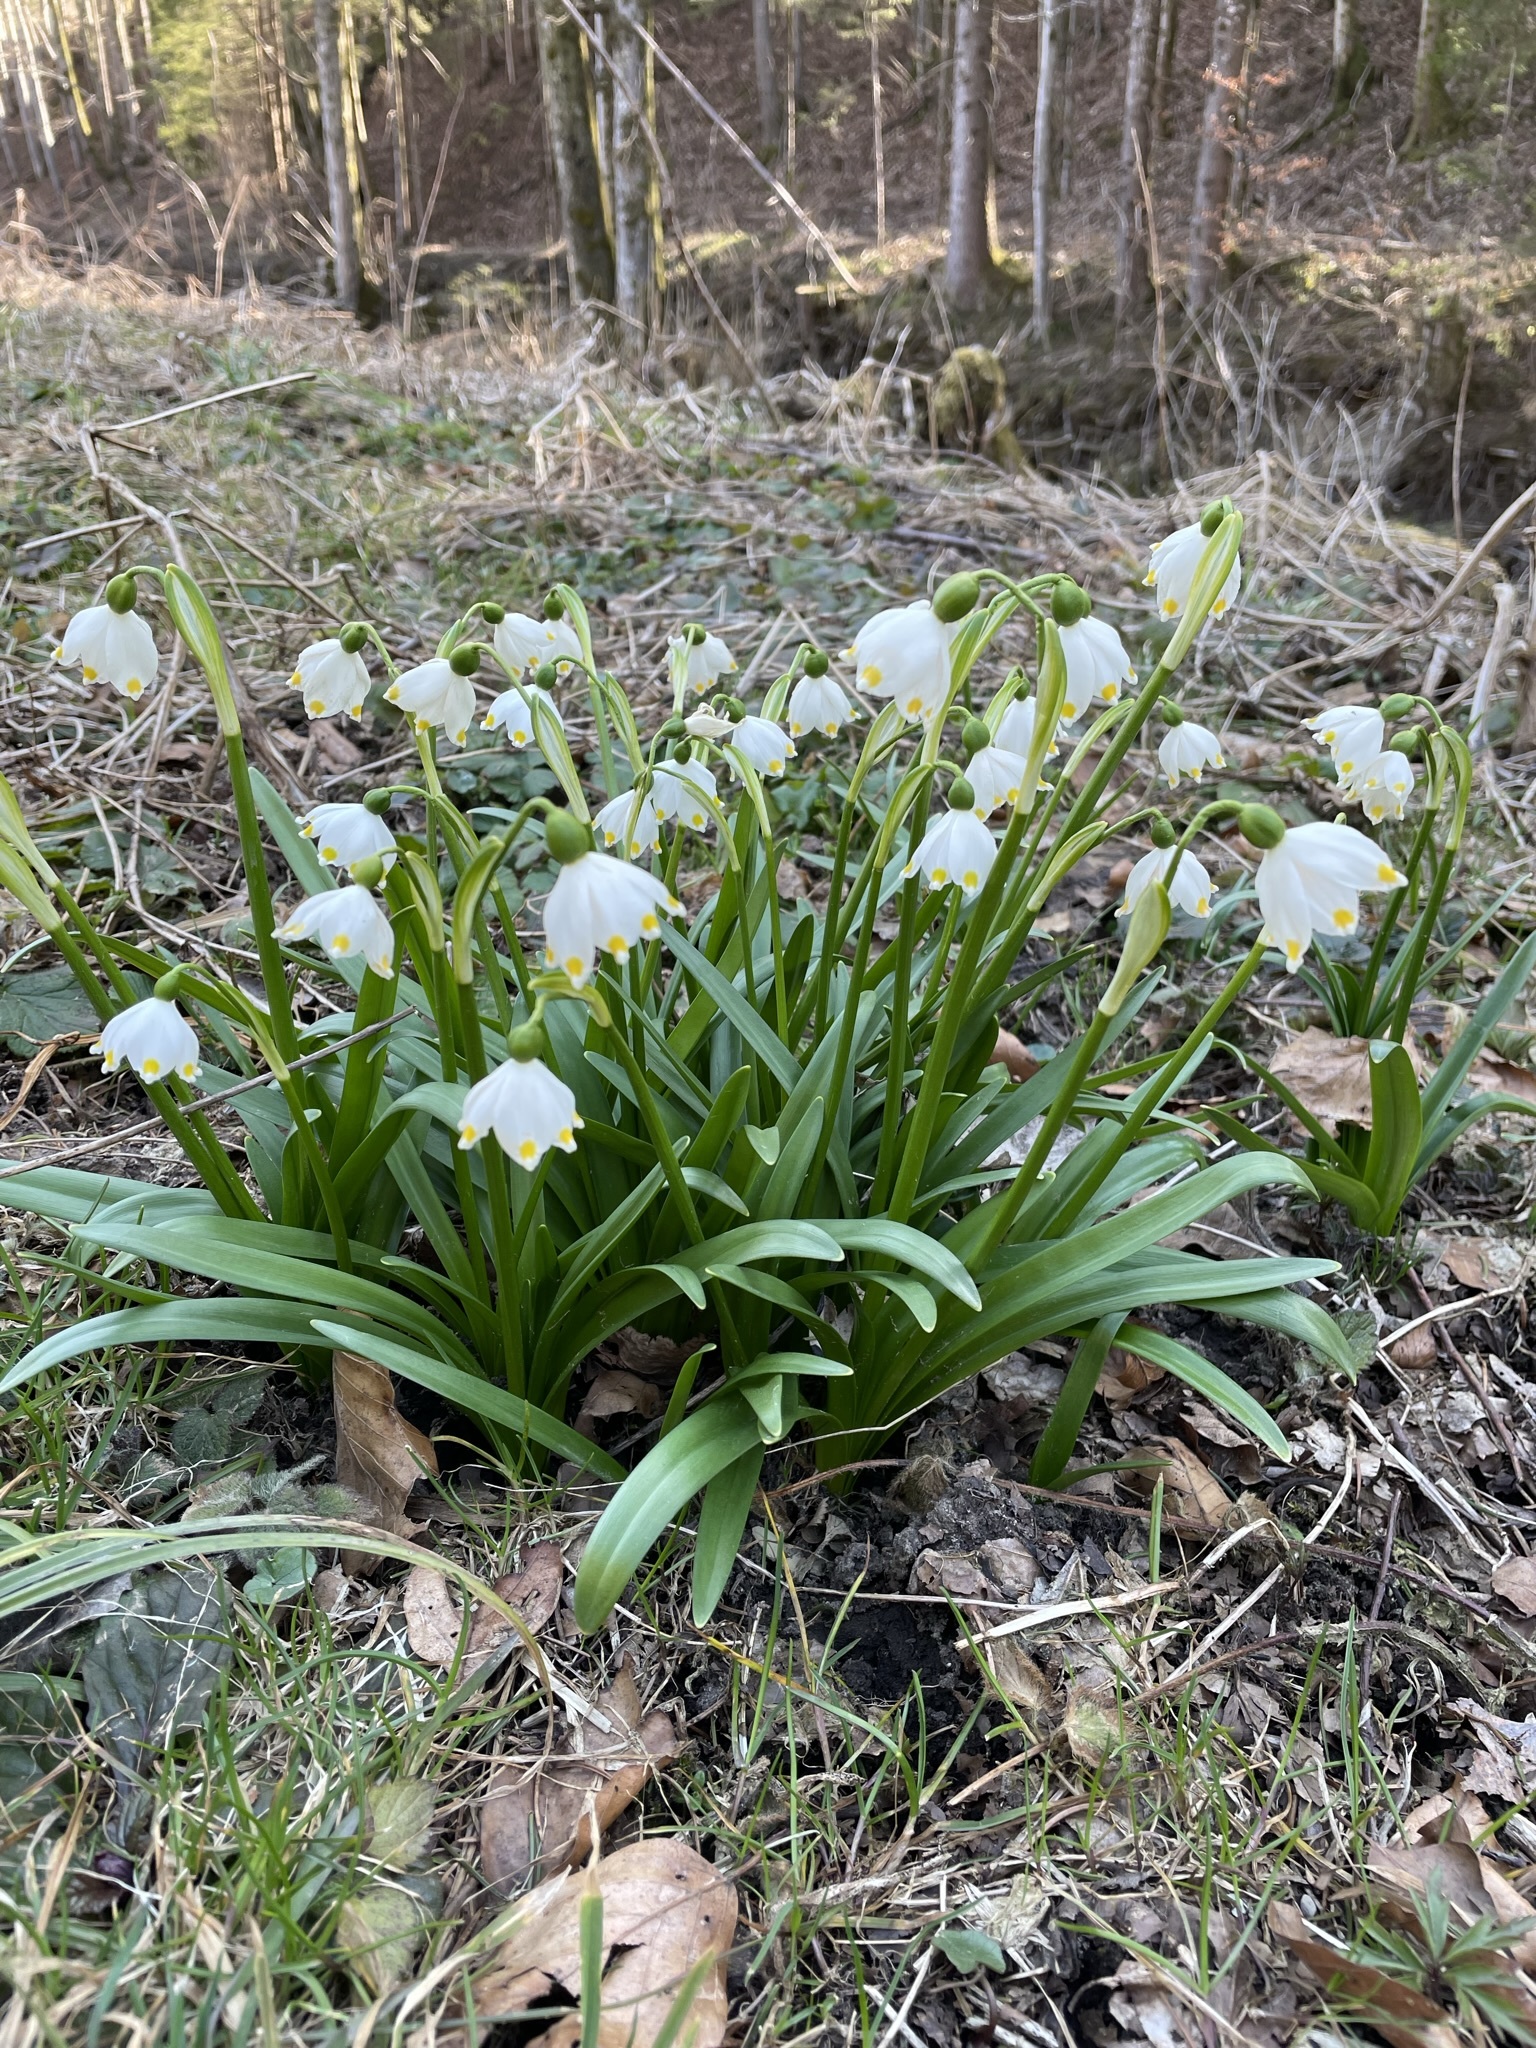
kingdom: Plantae
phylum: Tracheophyta
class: Liliopsida
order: Asparagales
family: Amaryllidaceae
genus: Leucojum
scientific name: Leucojum vernum
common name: Spring snowflake
